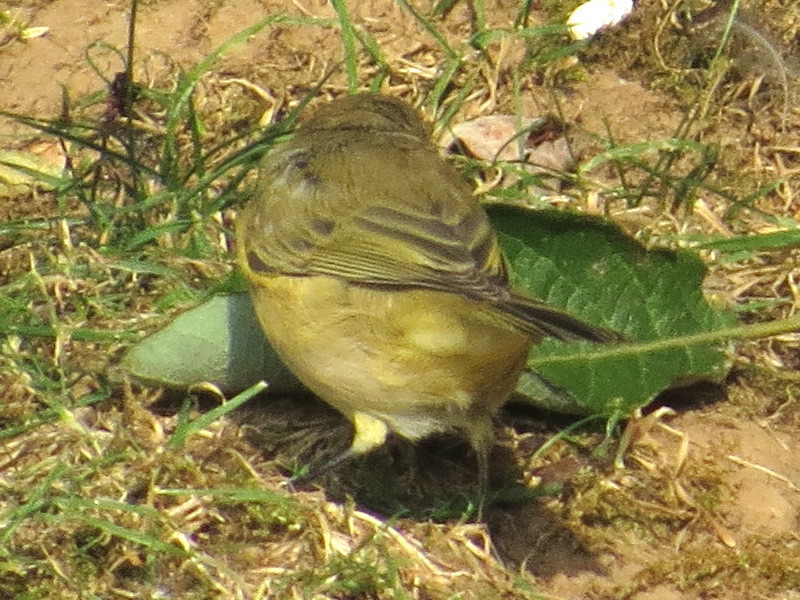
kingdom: Animalia
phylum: Chordata
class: Aves
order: Passeriformes
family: Phylloscopidae
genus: Phylloscopus
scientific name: Phylloscopus collybita
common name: Common chiffchaff
